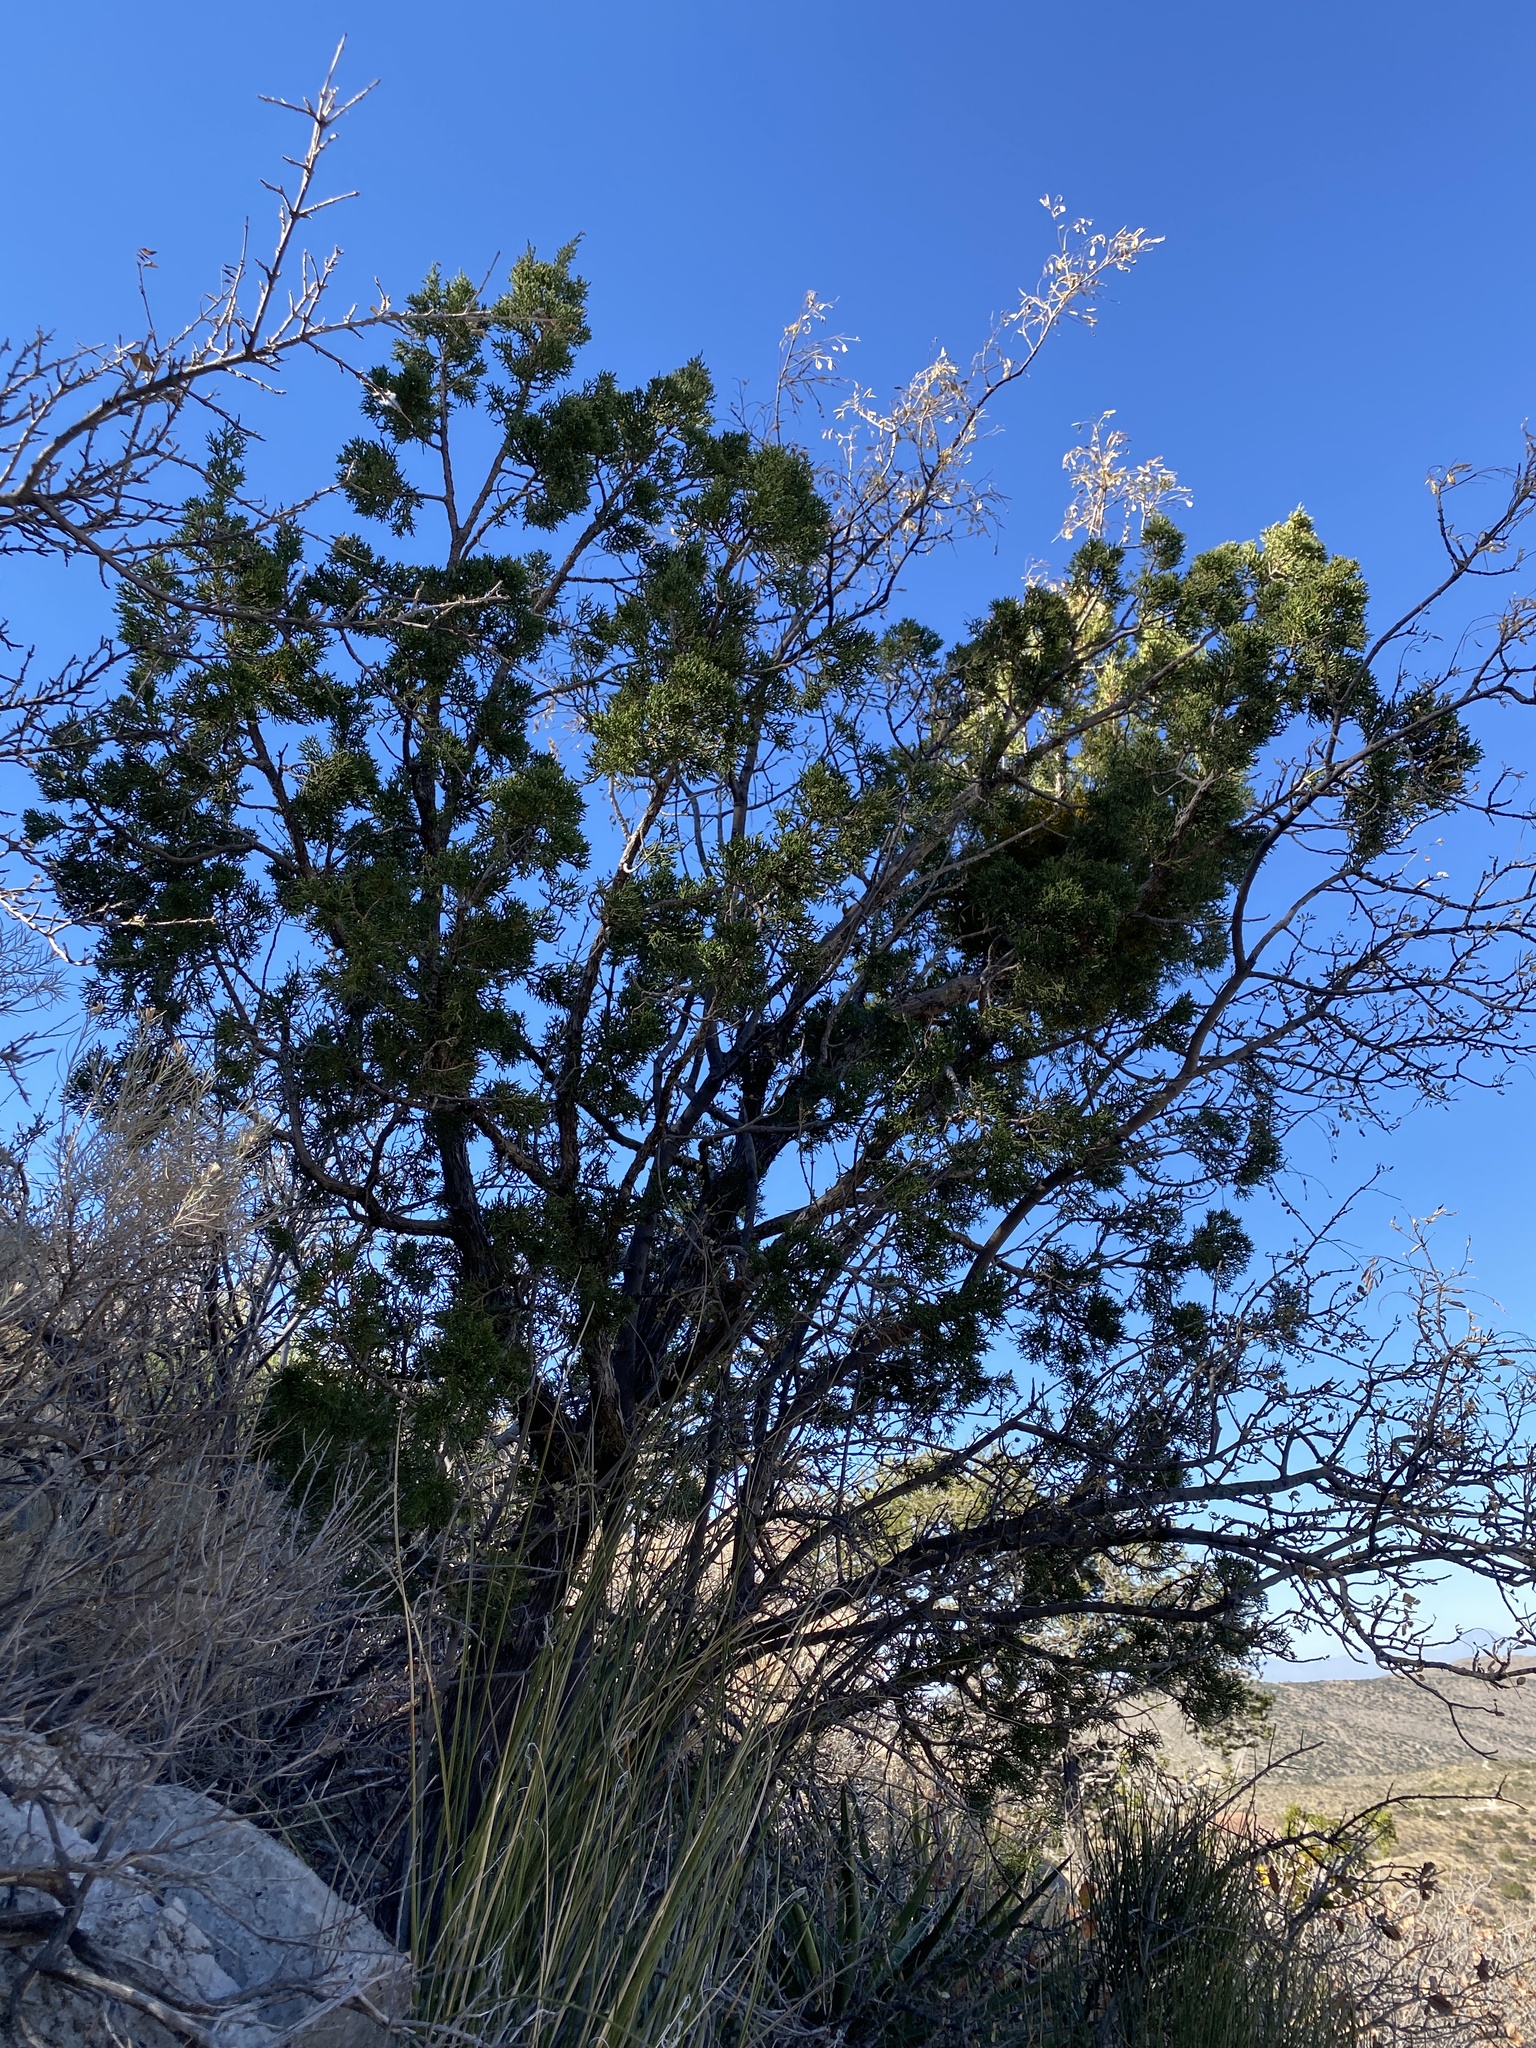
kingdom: Plantae
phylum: Tracheophyta
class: Pinopsida
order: Pinales
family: Cupressaceae
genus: Juniperus
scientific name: Juniperus monosperma
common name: One-seed juniper
